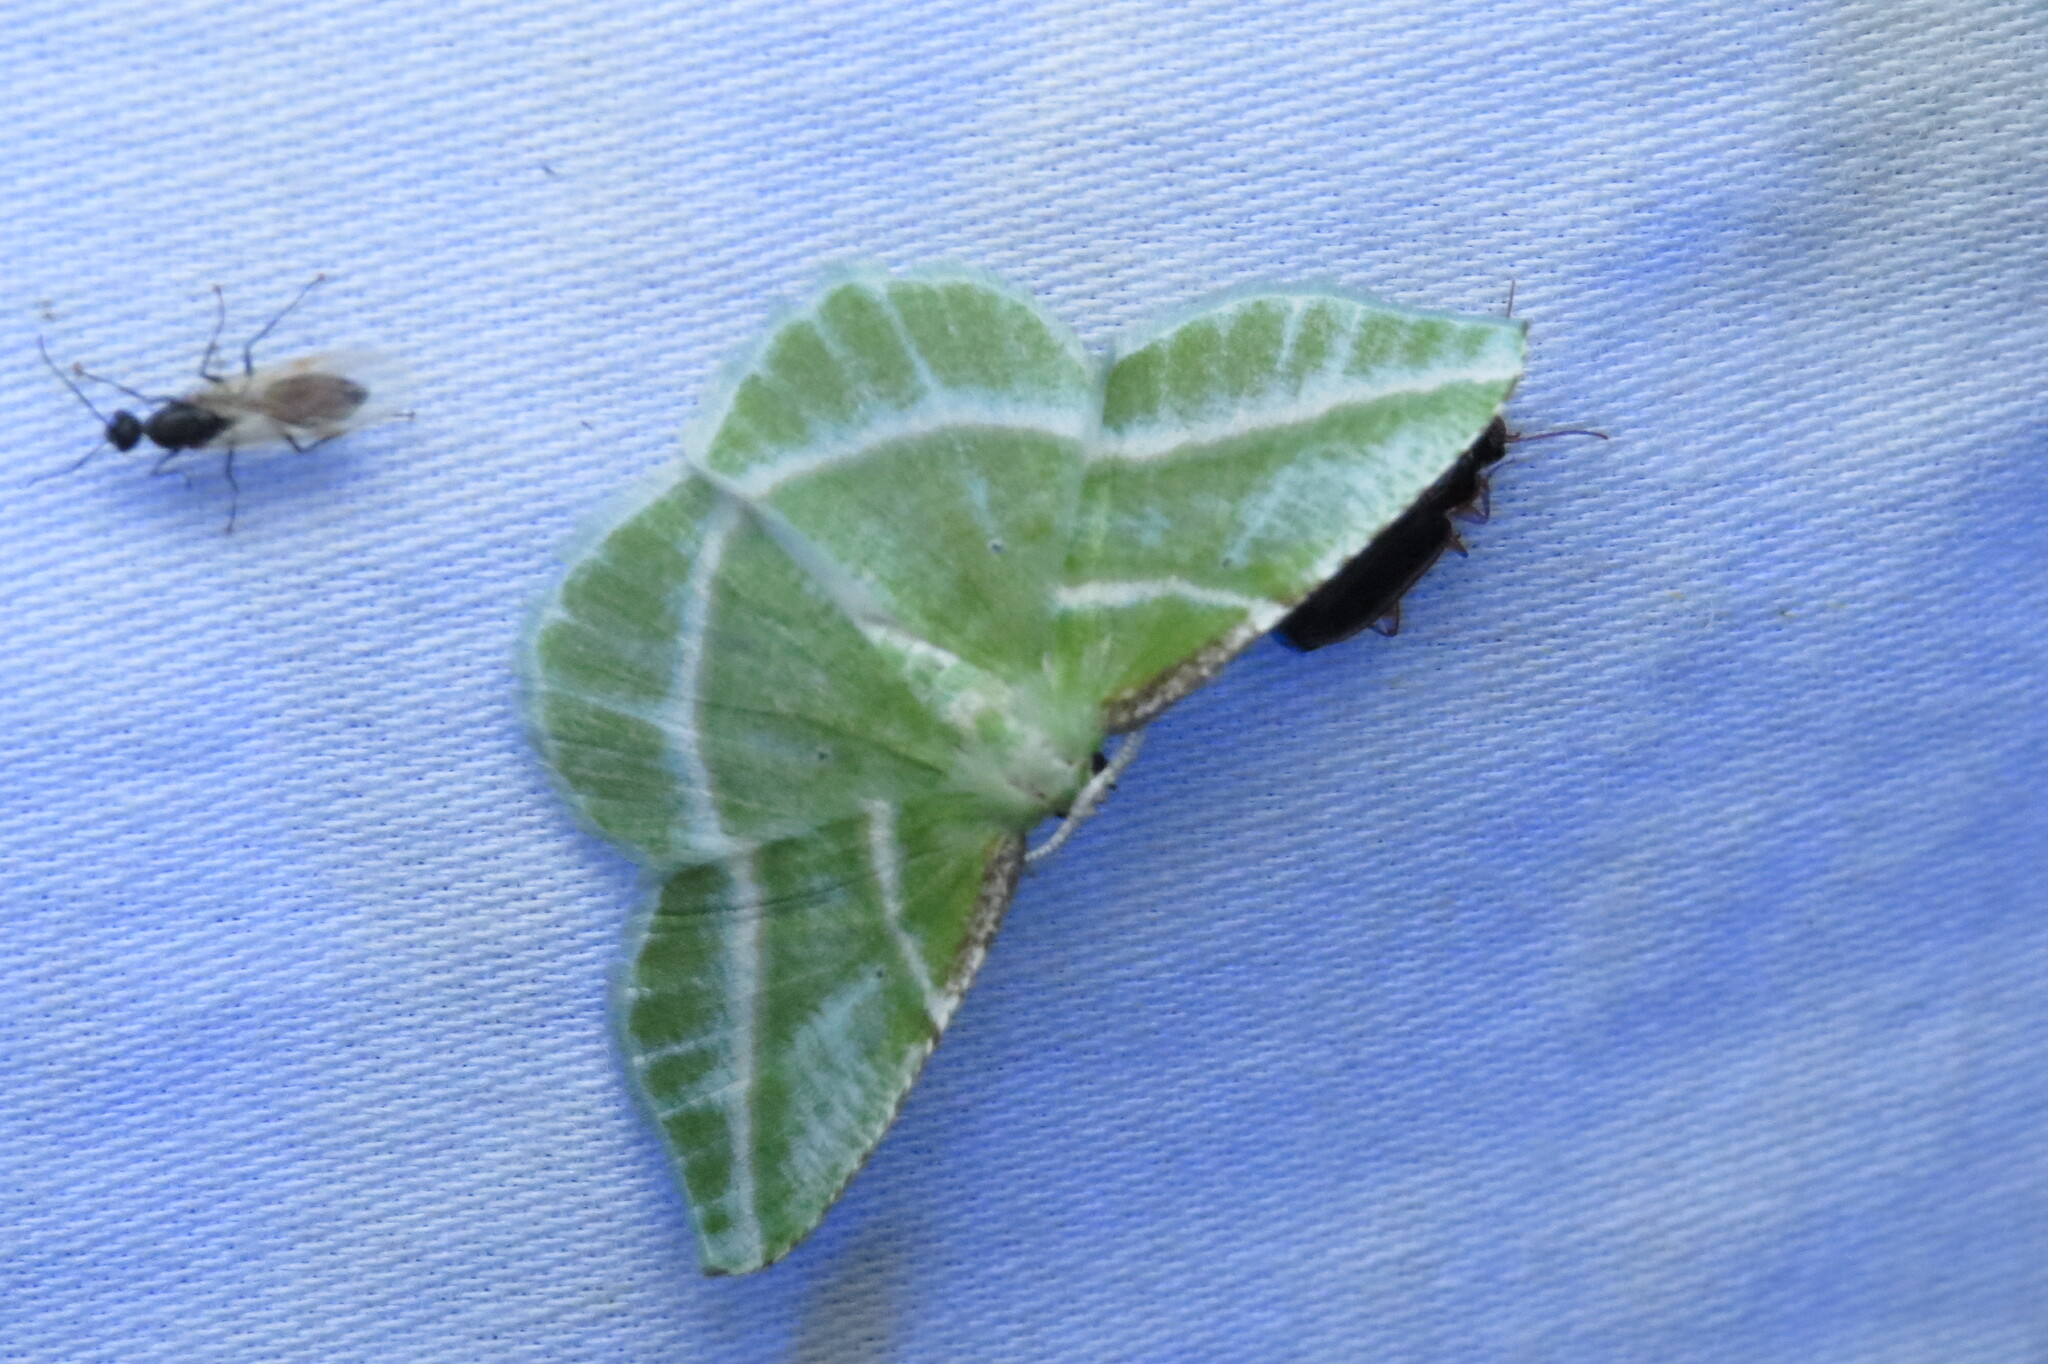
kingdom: Animalia
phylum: Arthropoda
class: Insecta
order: Lepidoptera
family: Geometridae
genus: Dichorda
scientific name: Dichorda iridaria
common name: Showy emerald
